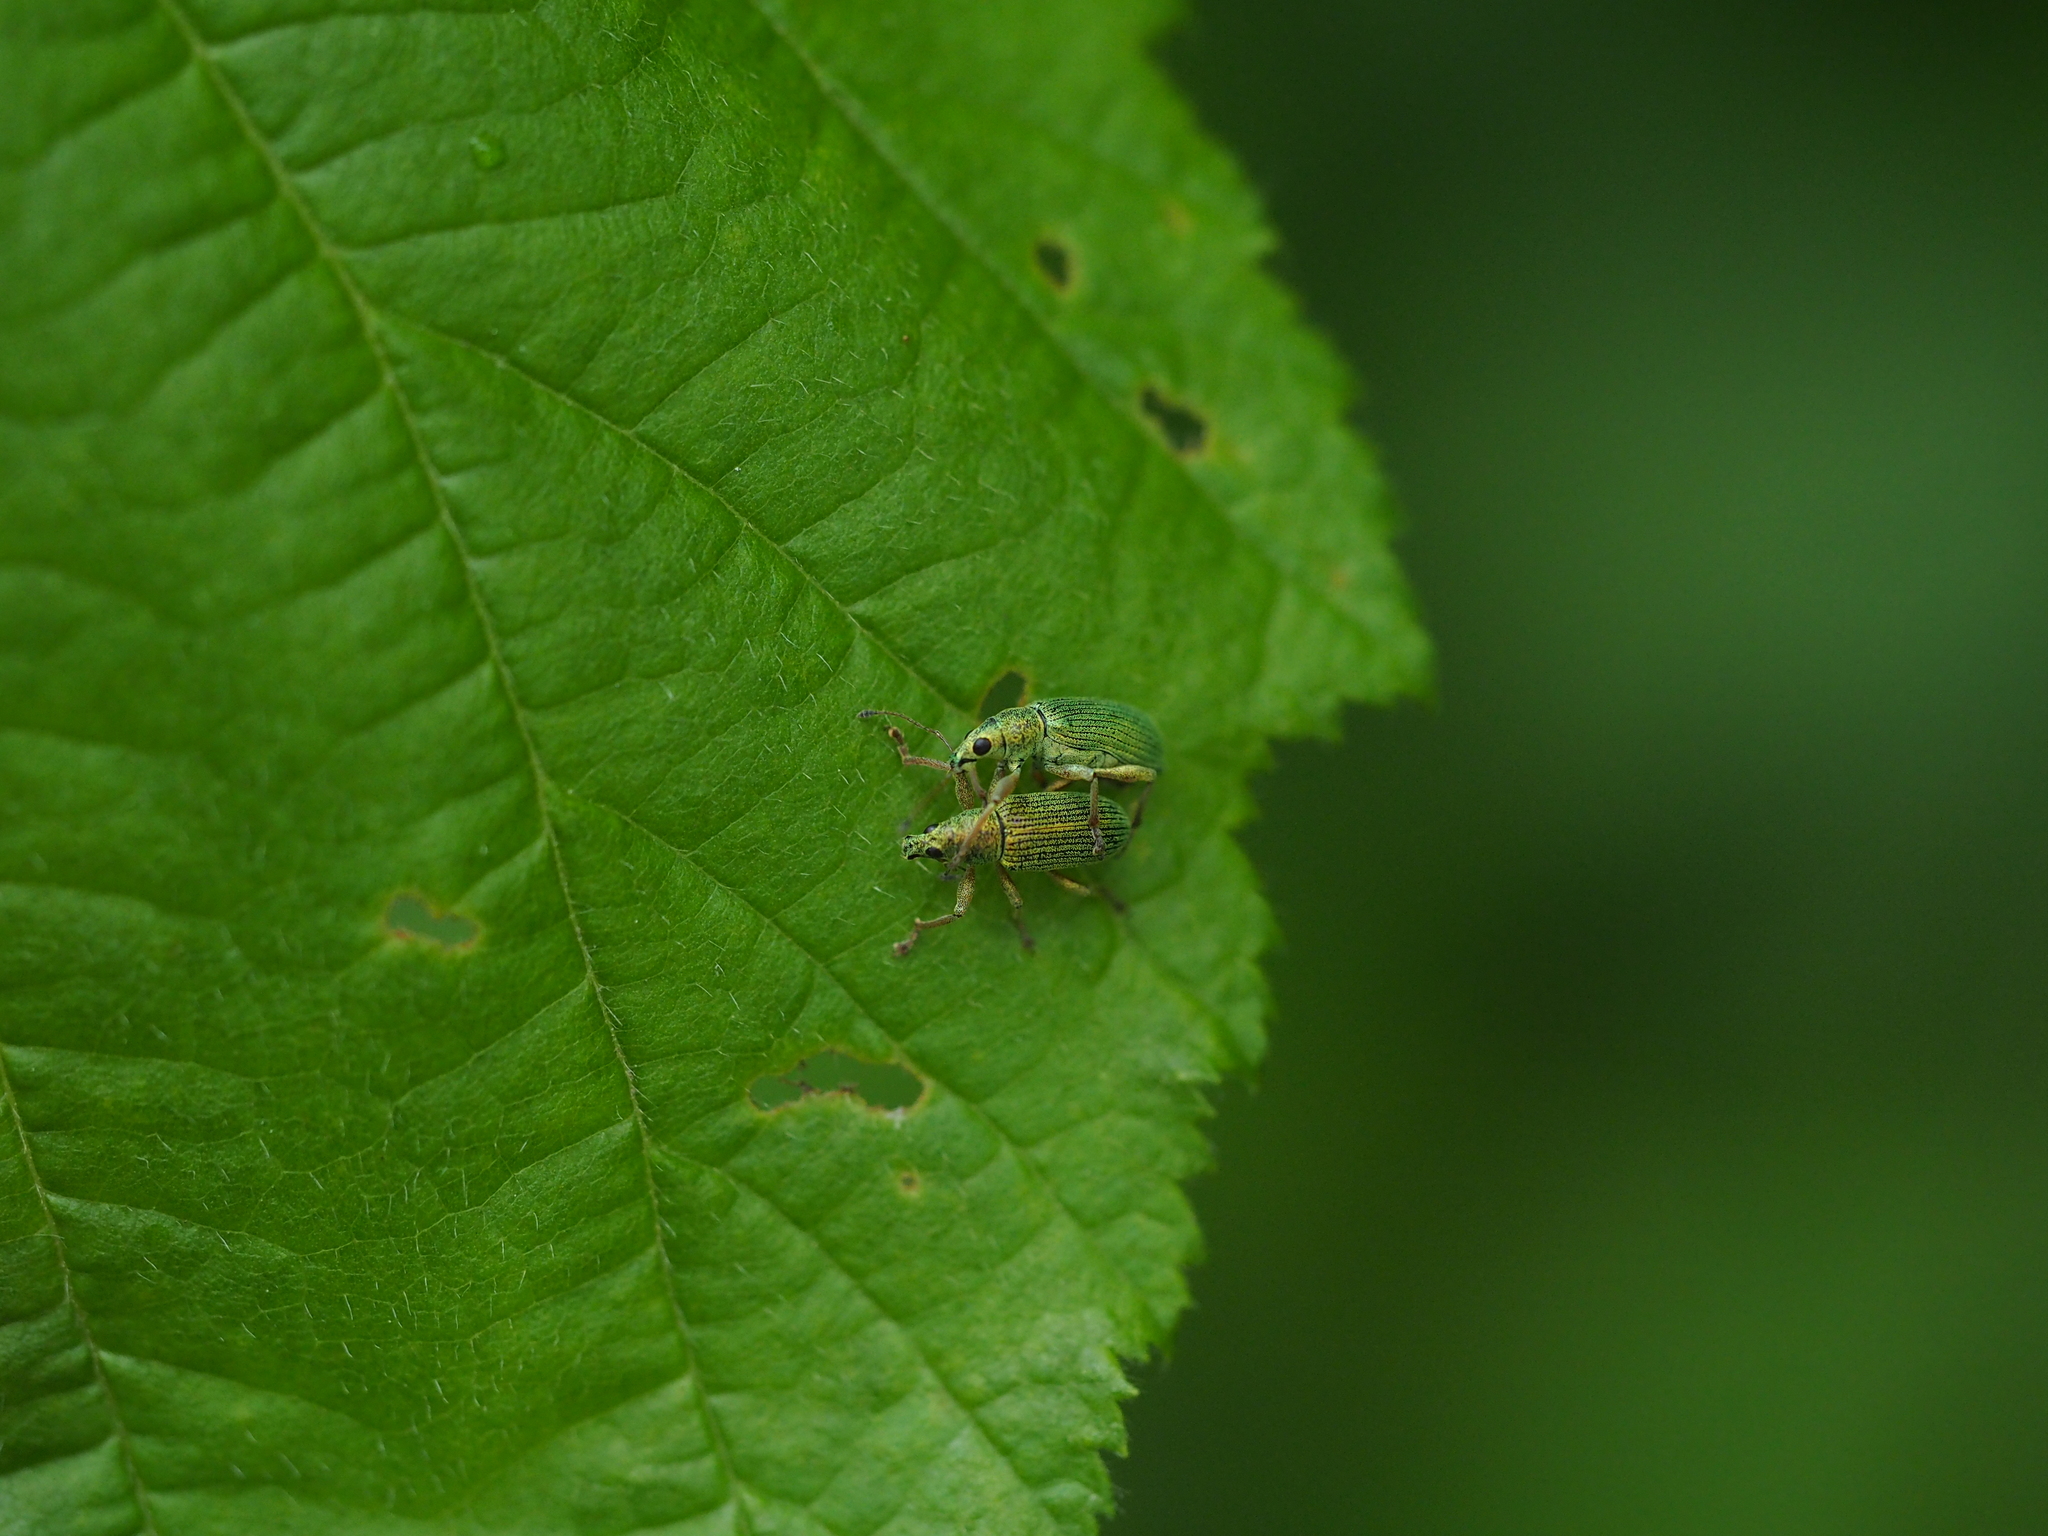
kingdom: Animalia
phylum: Arthropoda
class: Insecta
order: Coleoptera
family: Curculionidae
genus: Polydrusus
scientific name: Polydrusus formosus
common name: Weevil
